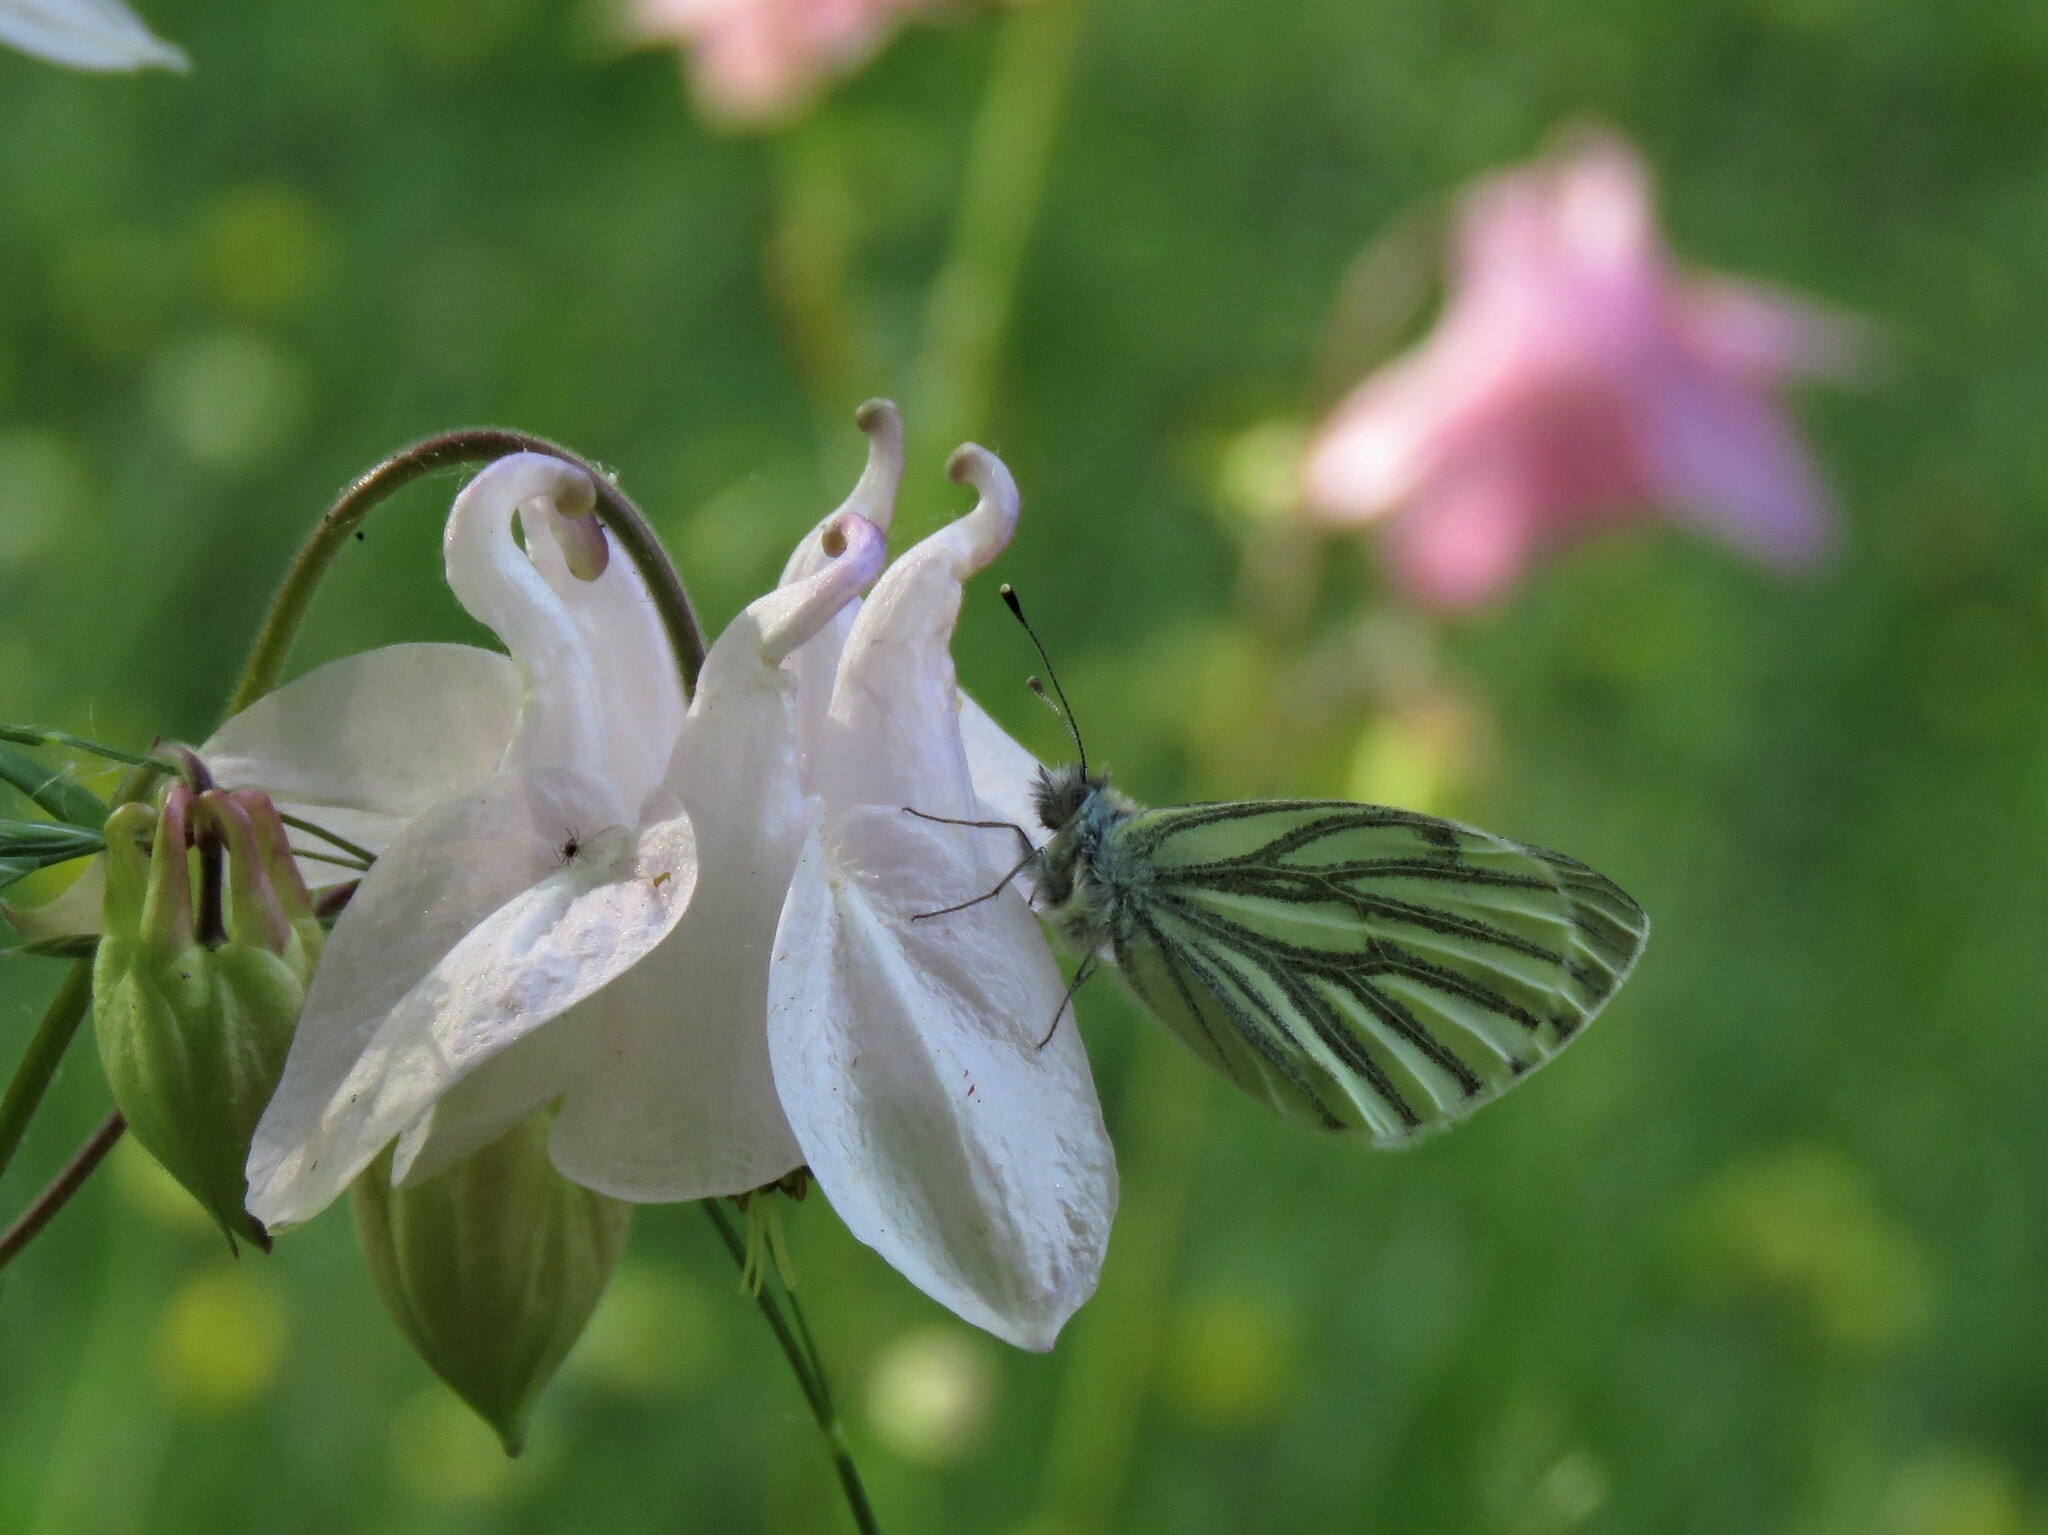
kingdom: Animalia
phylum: Arthropoda
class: Insecta
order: Lepidoptera
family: Pieridae
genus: Pieris
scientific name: Pieris napi
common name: Green-veined white
